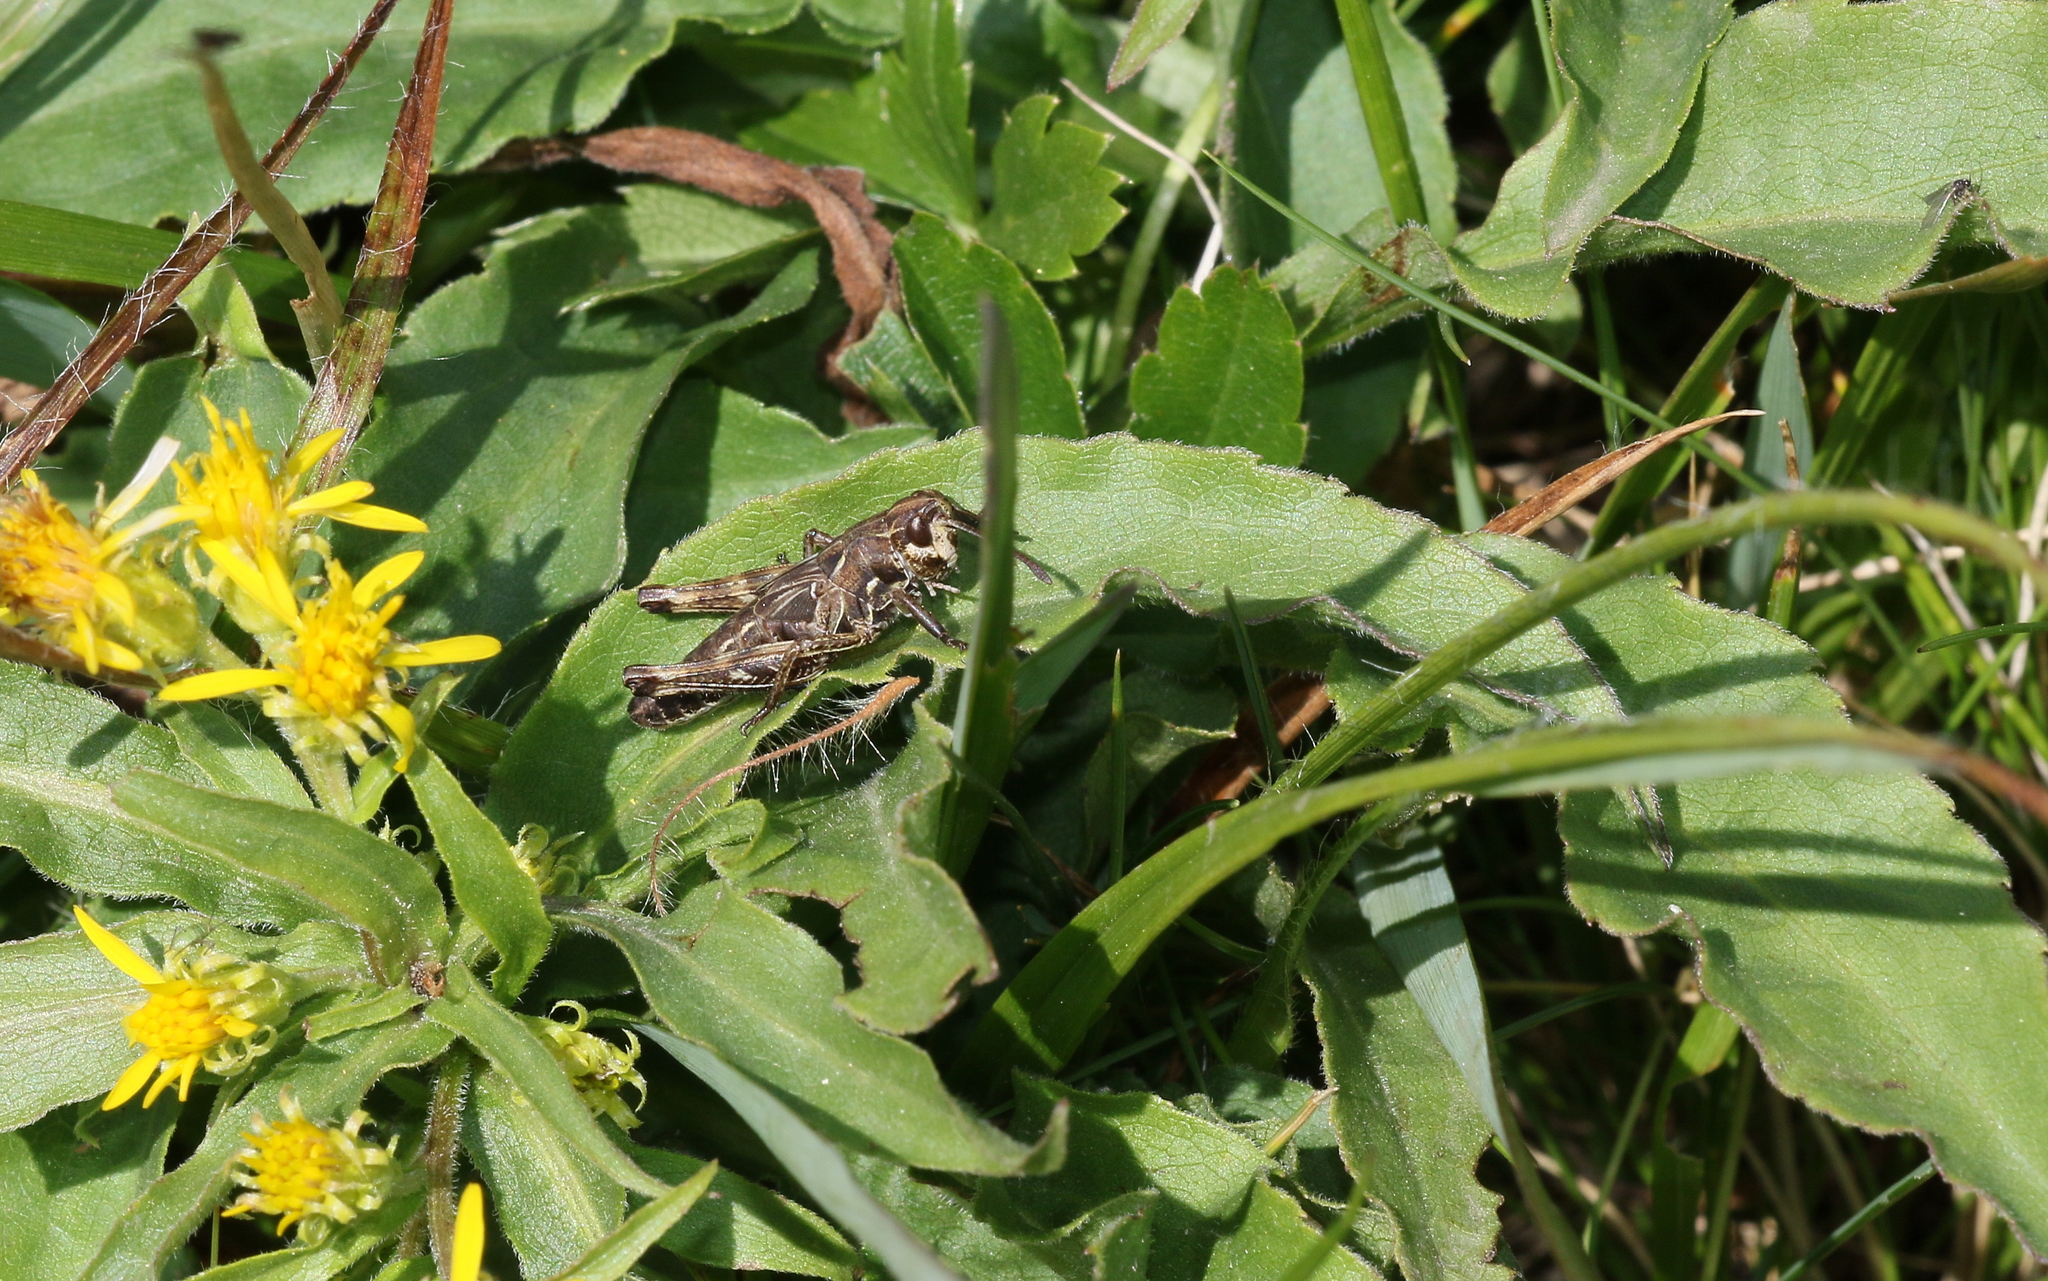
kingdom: Animalia
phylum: Arthropoda
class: Insecta
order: Orthoptera
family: Acrididae
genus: Gomphocerus
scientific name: Gomphocerus sibiricus
